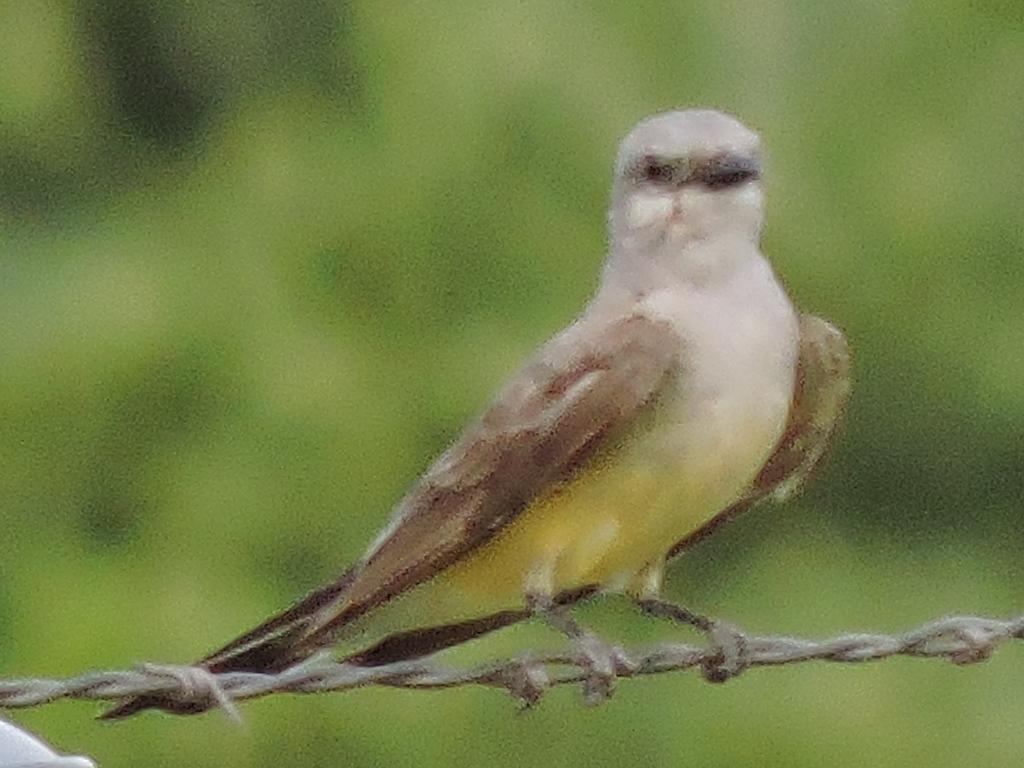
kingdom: Animalia
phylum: Chordata
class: Aves
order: Passeriformes
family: Tyrannidae
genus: Tyrannus
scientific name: Tyrannus verticalis
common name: Western kingbird
